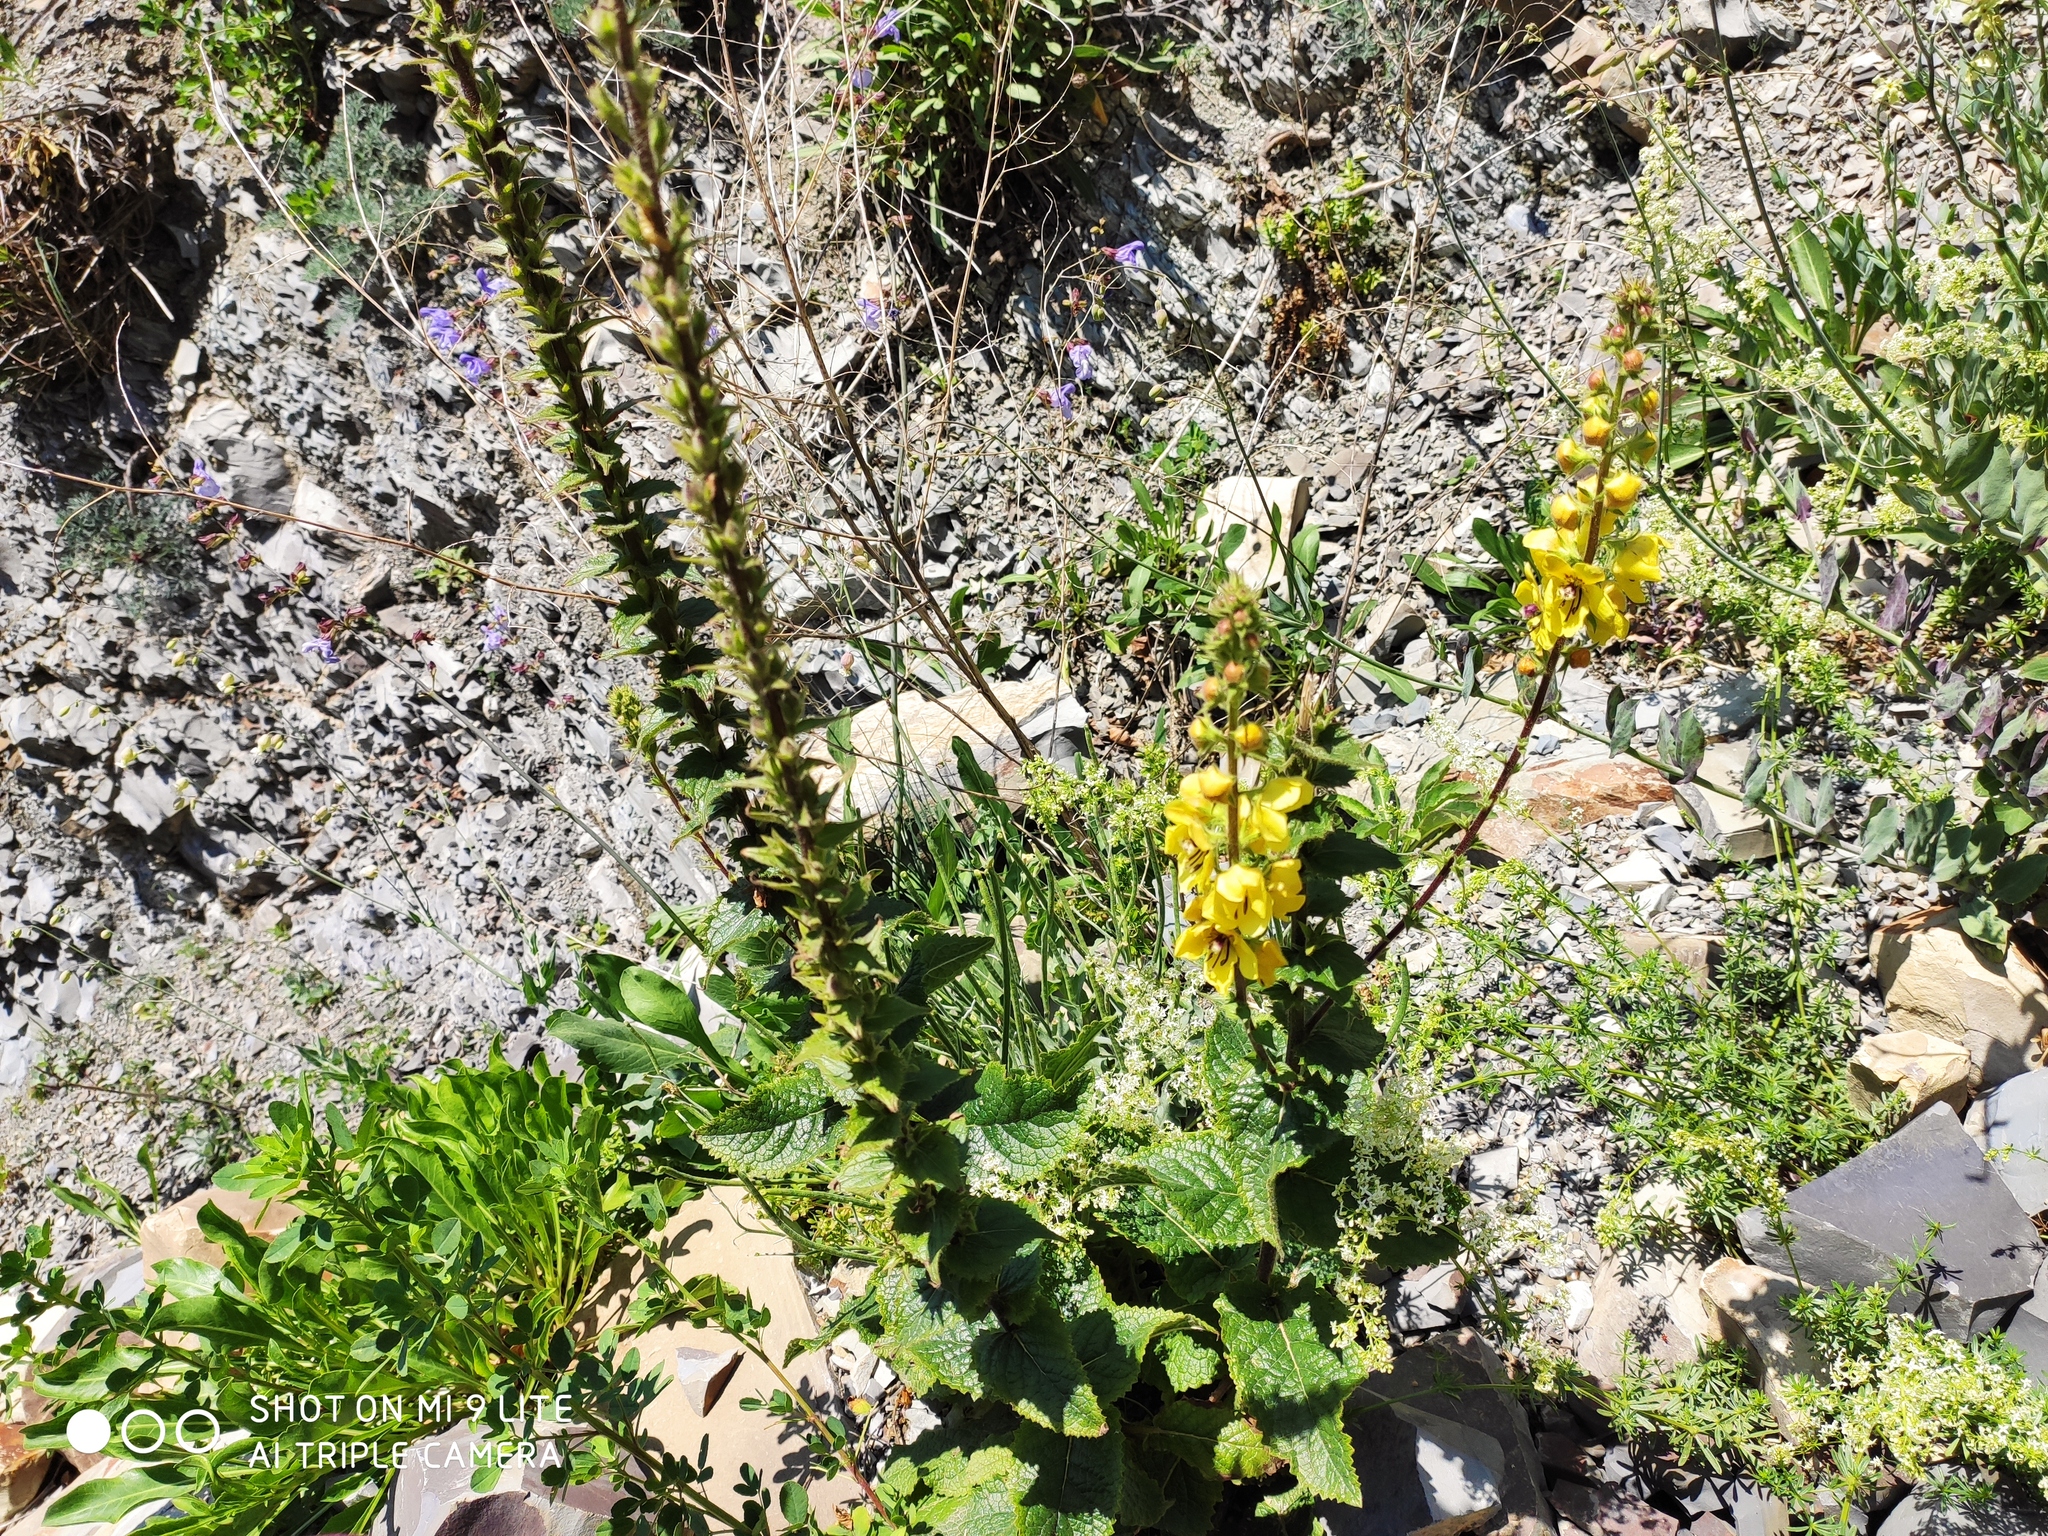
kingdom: Plantae
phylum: Tracheophyta
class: Magnoliopsida
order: Lamiales
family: Scrophulariaceae
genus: Verbascum
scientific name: Verbascum
